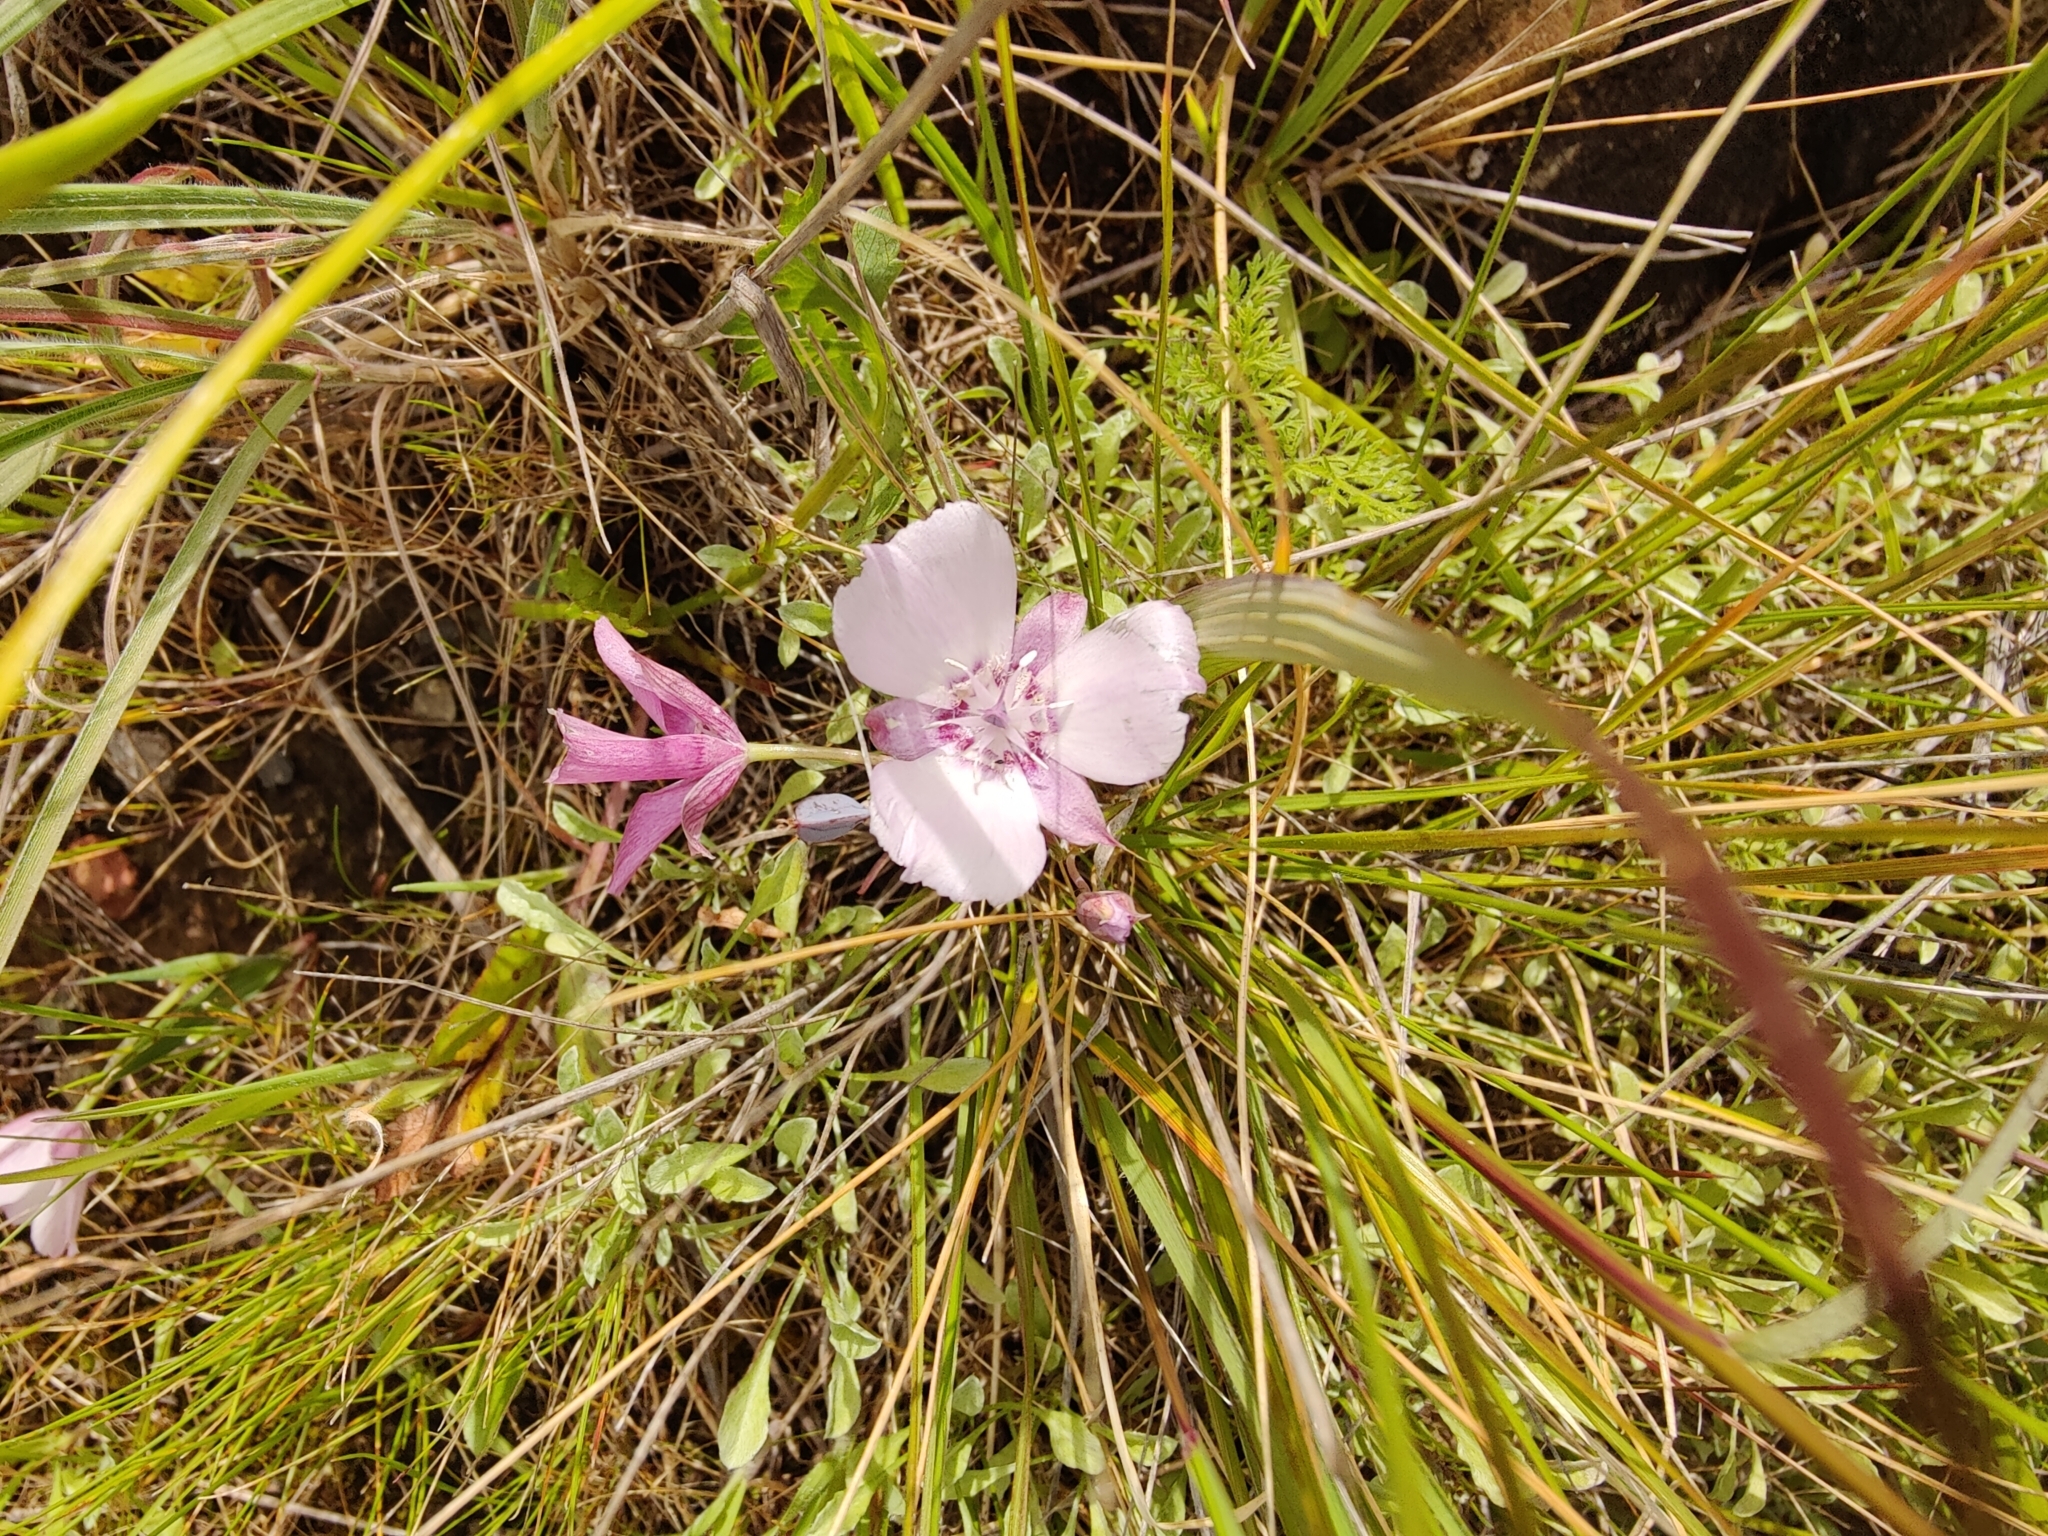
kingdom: Plantae
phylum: Tracheophyta
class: Liliopsida
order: Liliales
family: Liliaceae
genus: Calochortus
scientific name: Calochortus umbellatus
